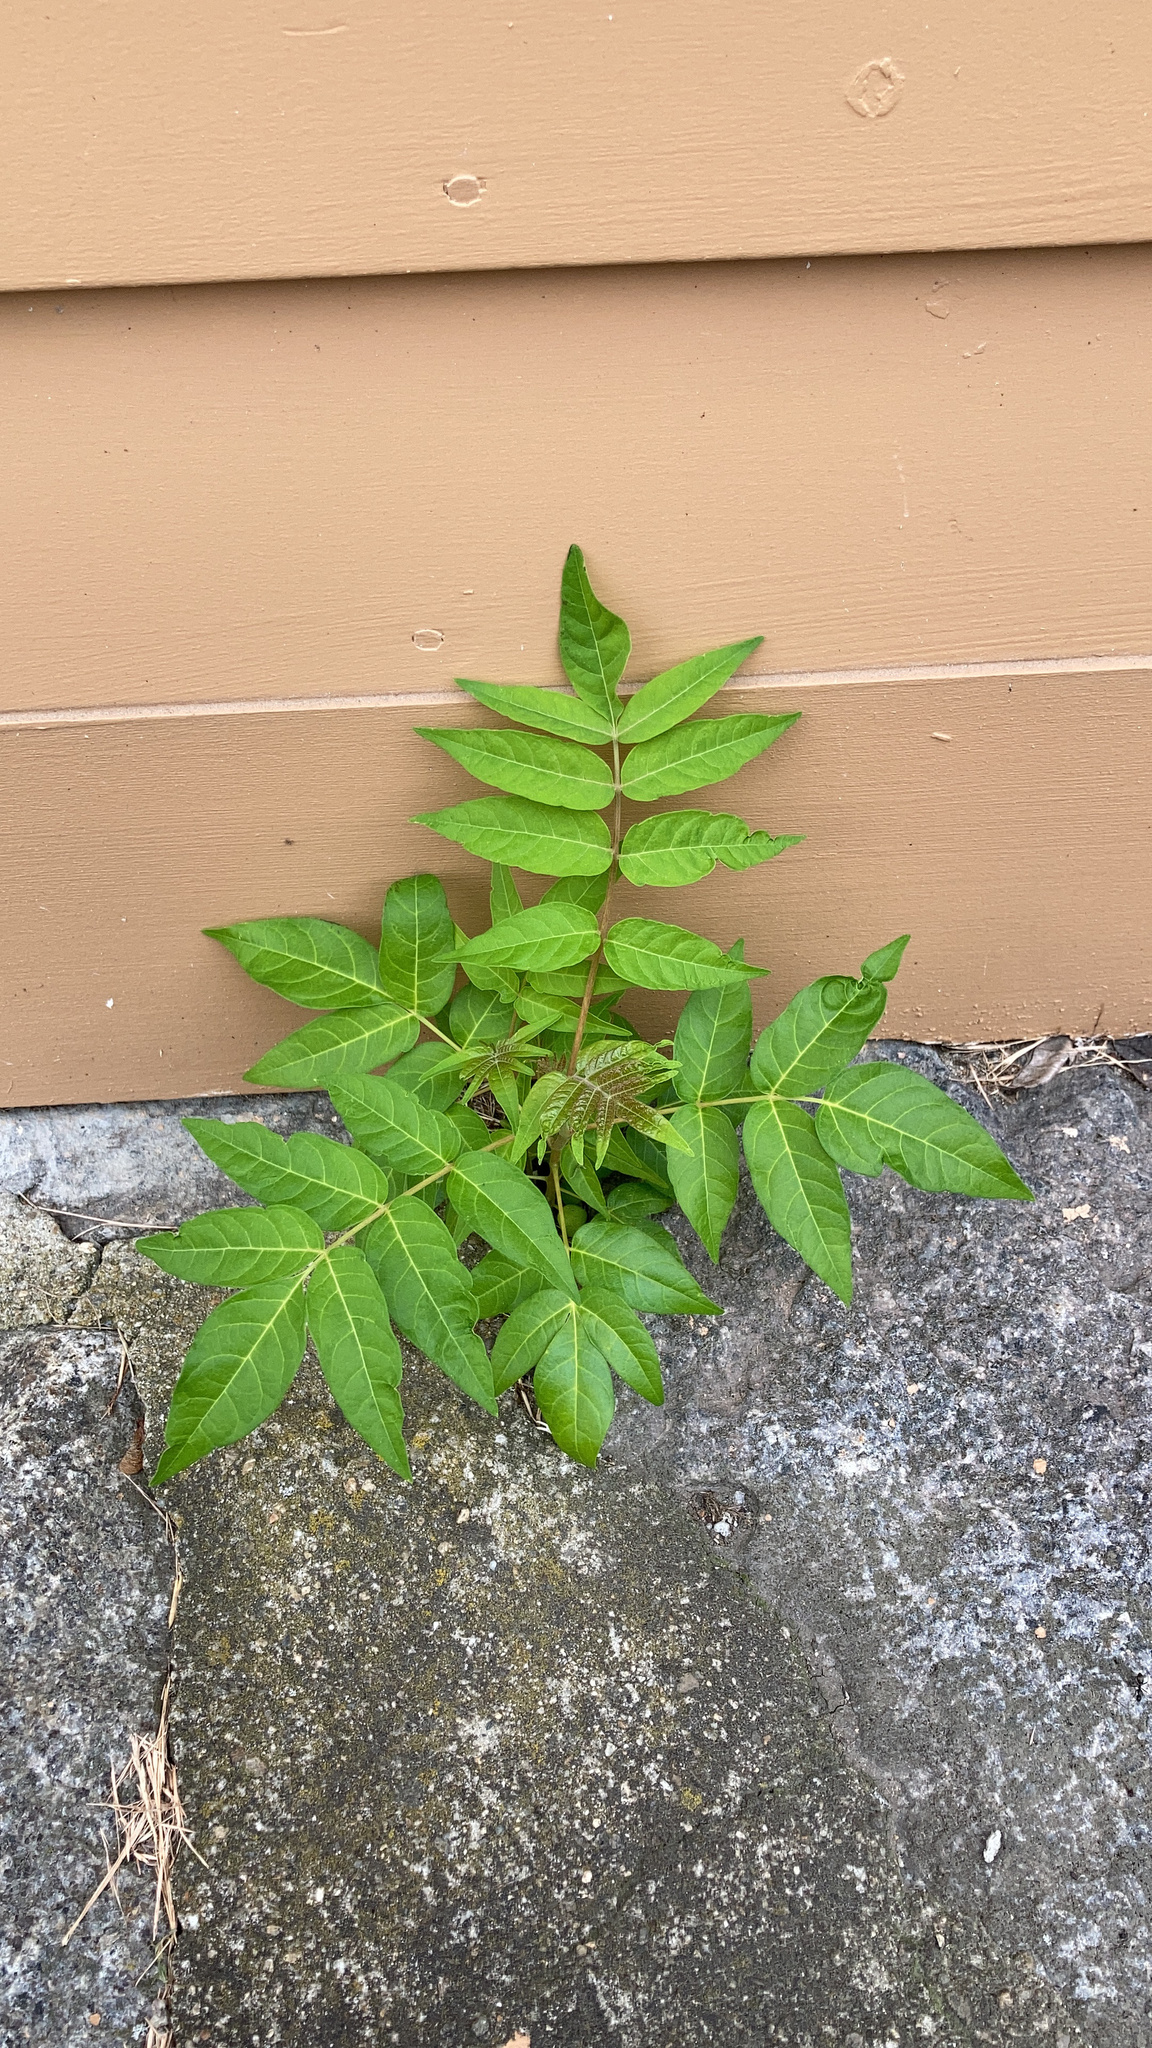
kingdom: Plantae
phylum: Tracheophyta
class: Magnoliopsida
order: Sapindales
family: Simaroubaceae
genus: Ailanthus
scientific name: Ailanthus altissima
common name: Tree-of-heaven
